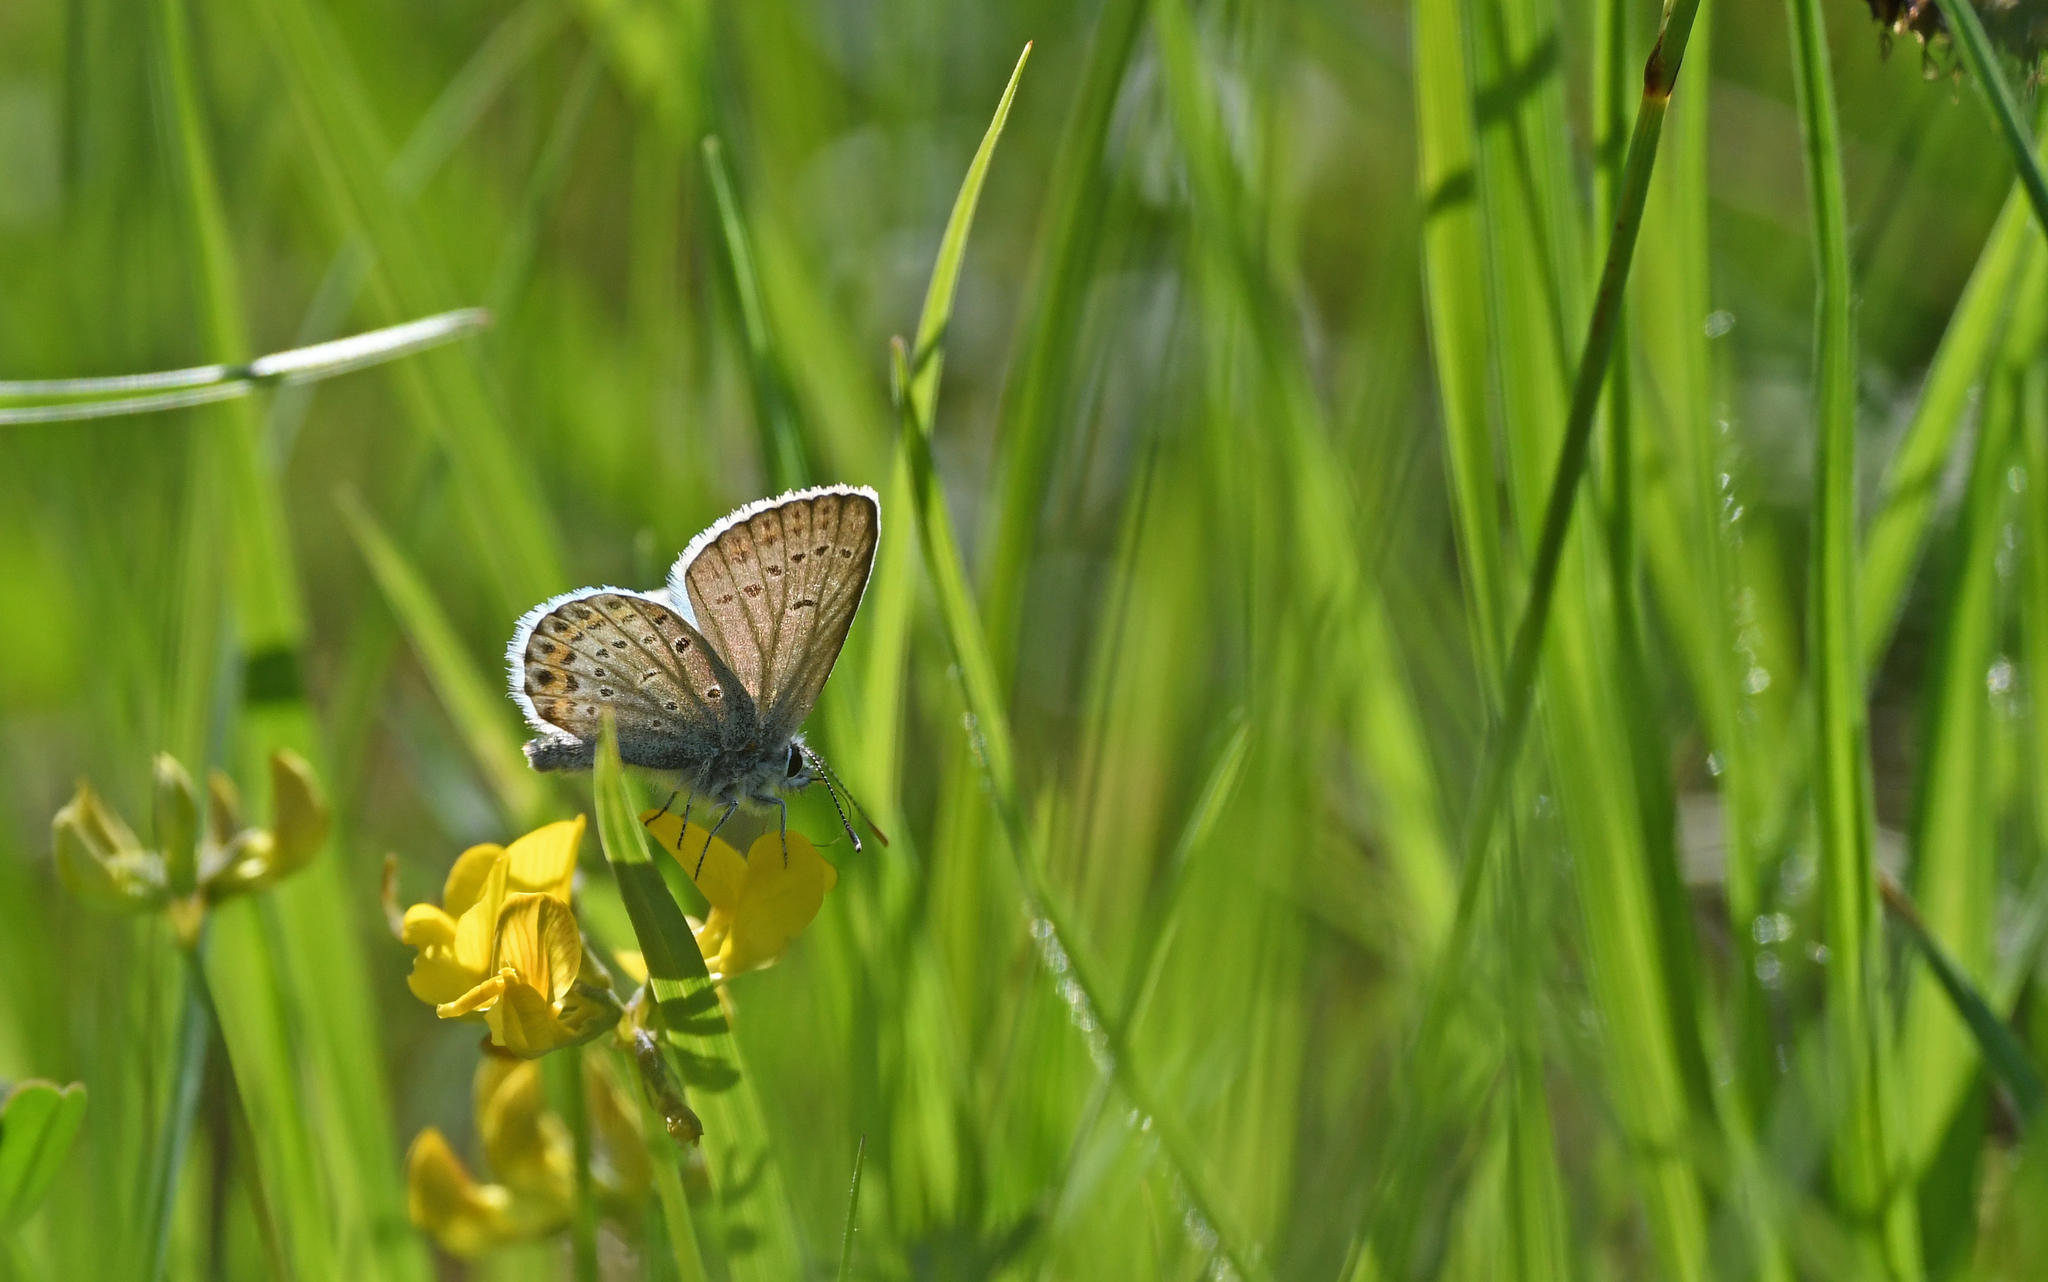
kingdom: Animalia
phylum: Arthropoda
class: Insecta
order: Lepidoptera
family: Lycaenidae
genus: Lycaeides
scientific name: Lycaeides idas
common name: Northern blue
